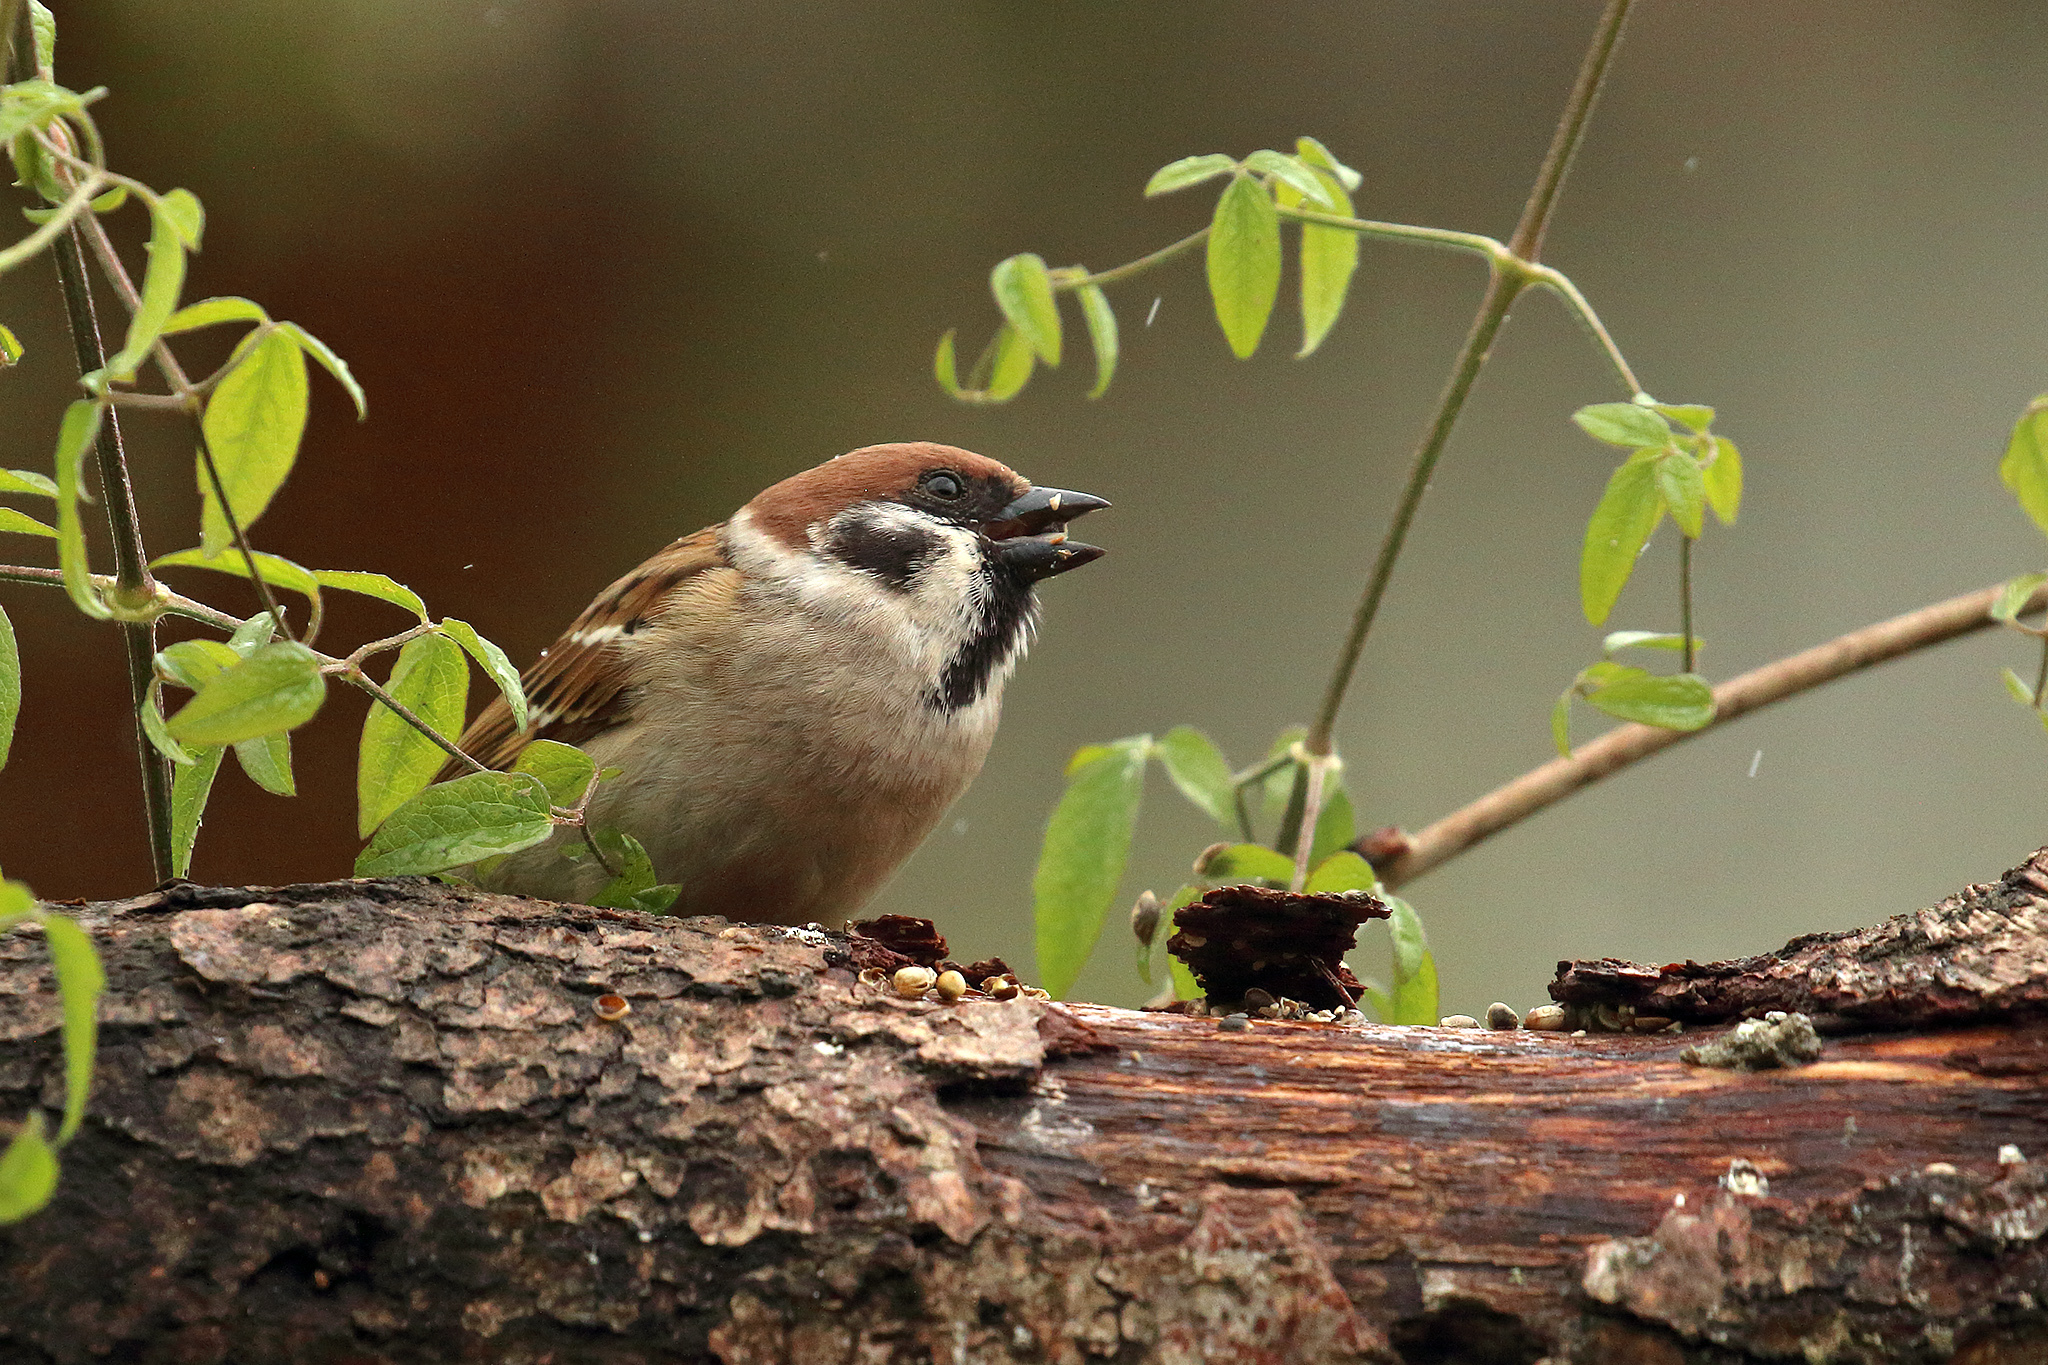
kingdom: Animalia
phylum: Chordata
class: Aves
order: Passeriformes
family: Passeridae
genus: Passer
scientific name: Passer montanus
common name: Eurasian tree sparrow
